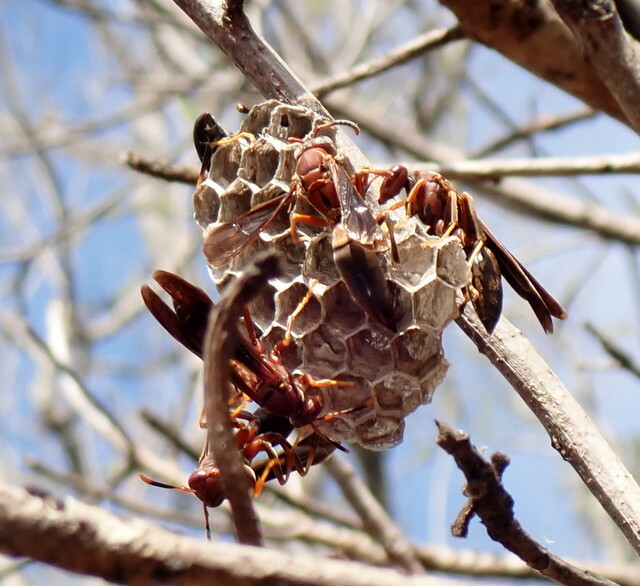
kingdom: Animalia
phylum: Arthropoda
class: Insecta
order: Hymenoptera
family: Eumenidae
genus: Polistes
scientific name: Polistes annularis
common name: Ringed paper wasp
